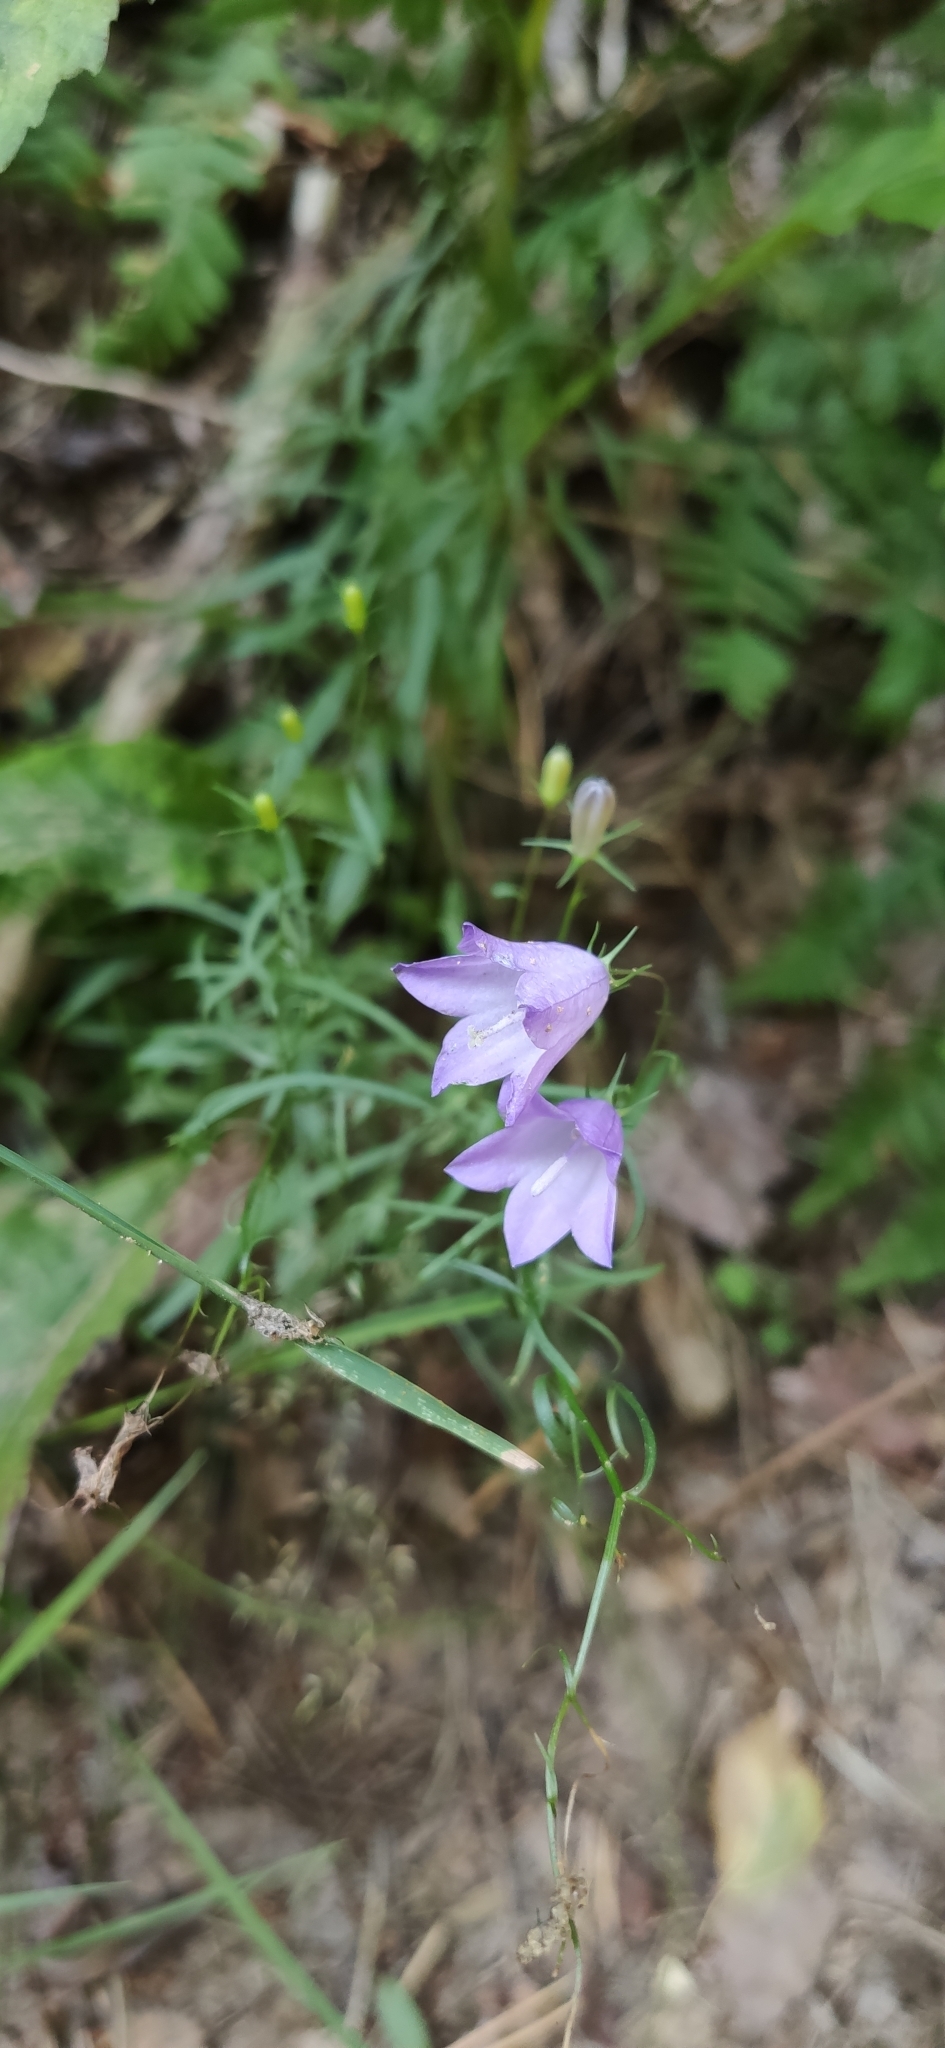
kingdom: Plantae
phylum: Tracheophyta
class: Magnoliopsida
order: Asterales
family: Campanulaceae
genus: Campanula
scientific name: Campanula rotundifolia
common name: Harebell
